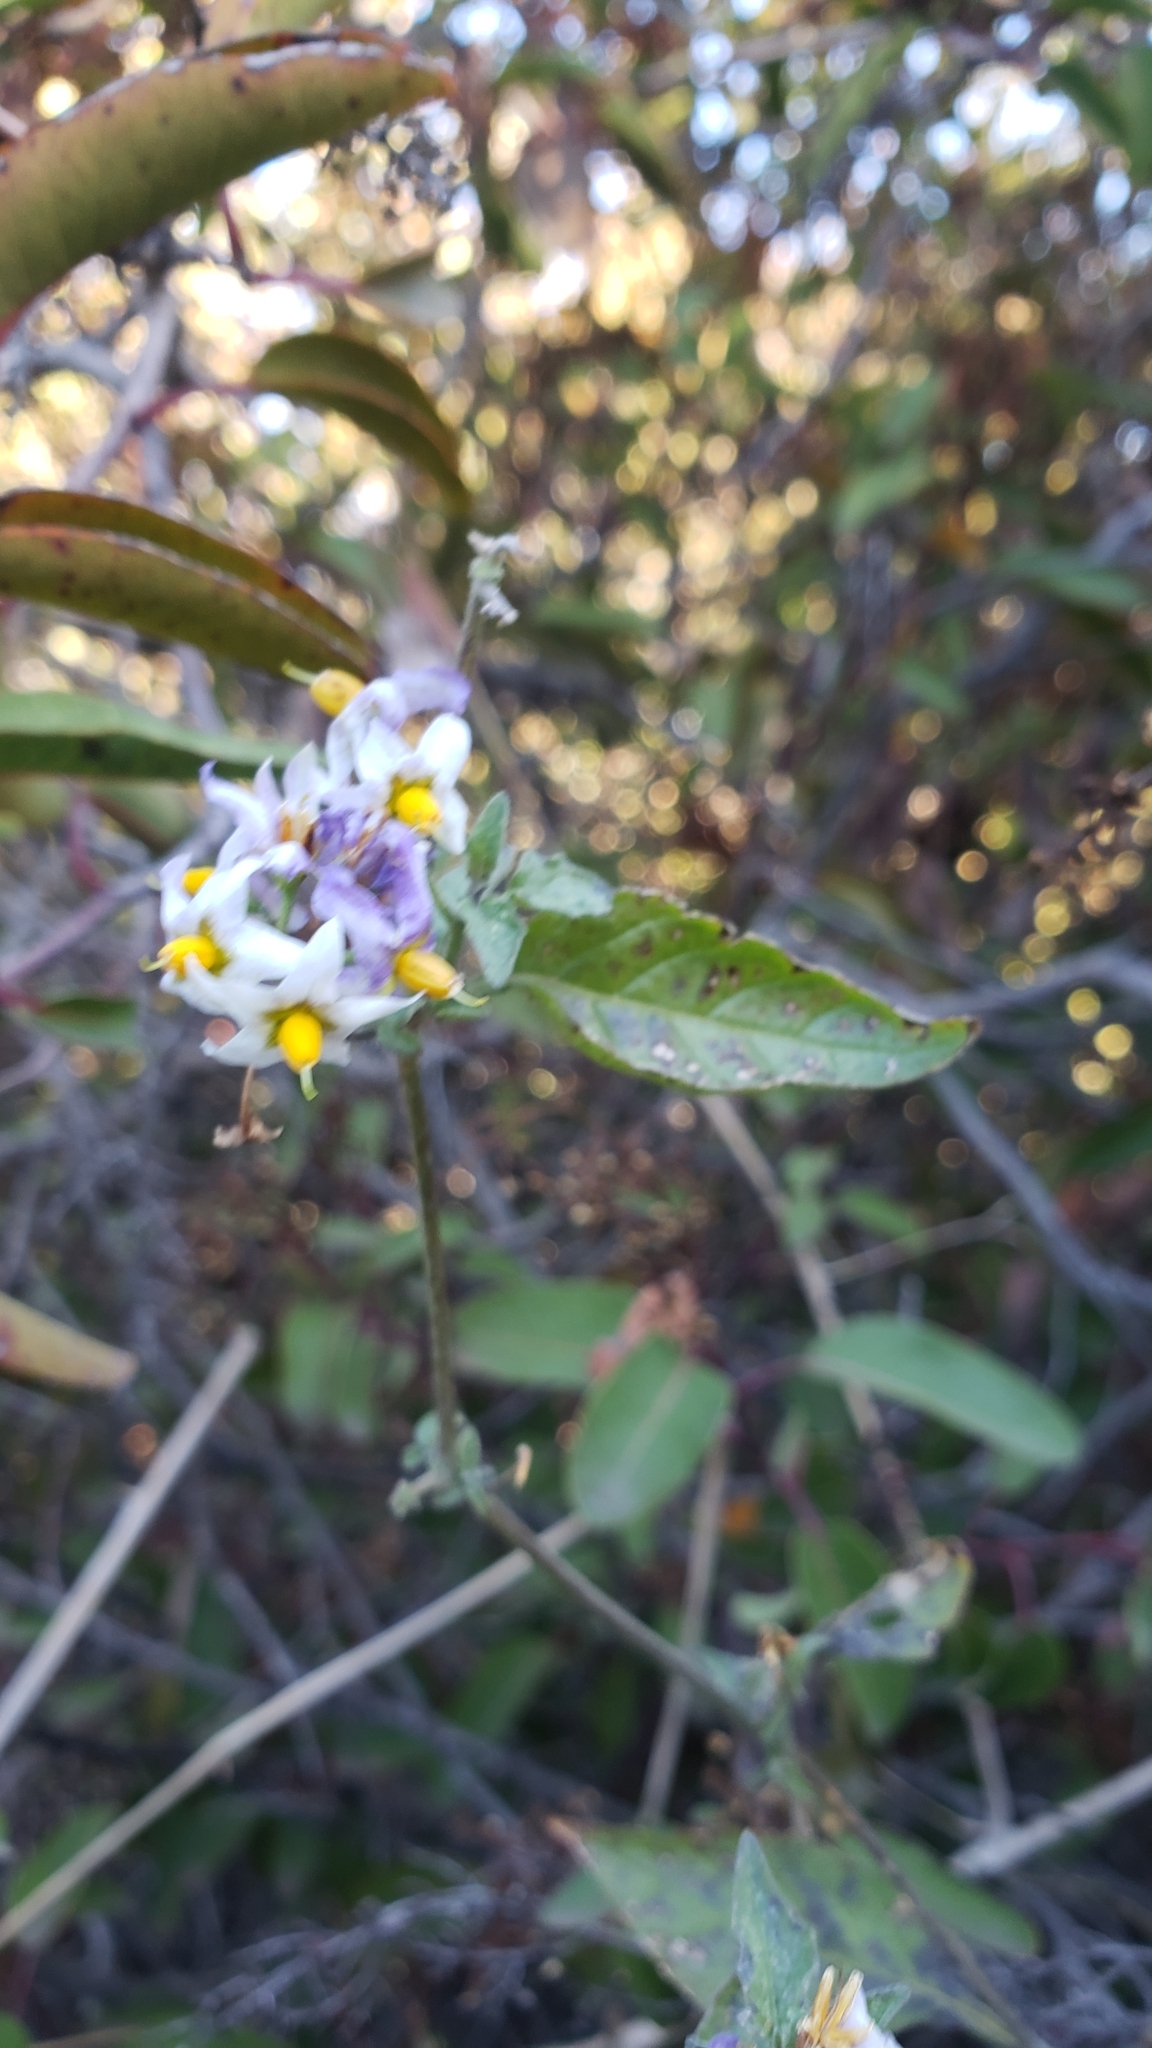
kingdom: Plantae
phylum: Tracheophyta
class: Magnoliopsida
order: Solanales
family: Solanaceae
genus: Solanum
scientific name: Solanum douglasii
